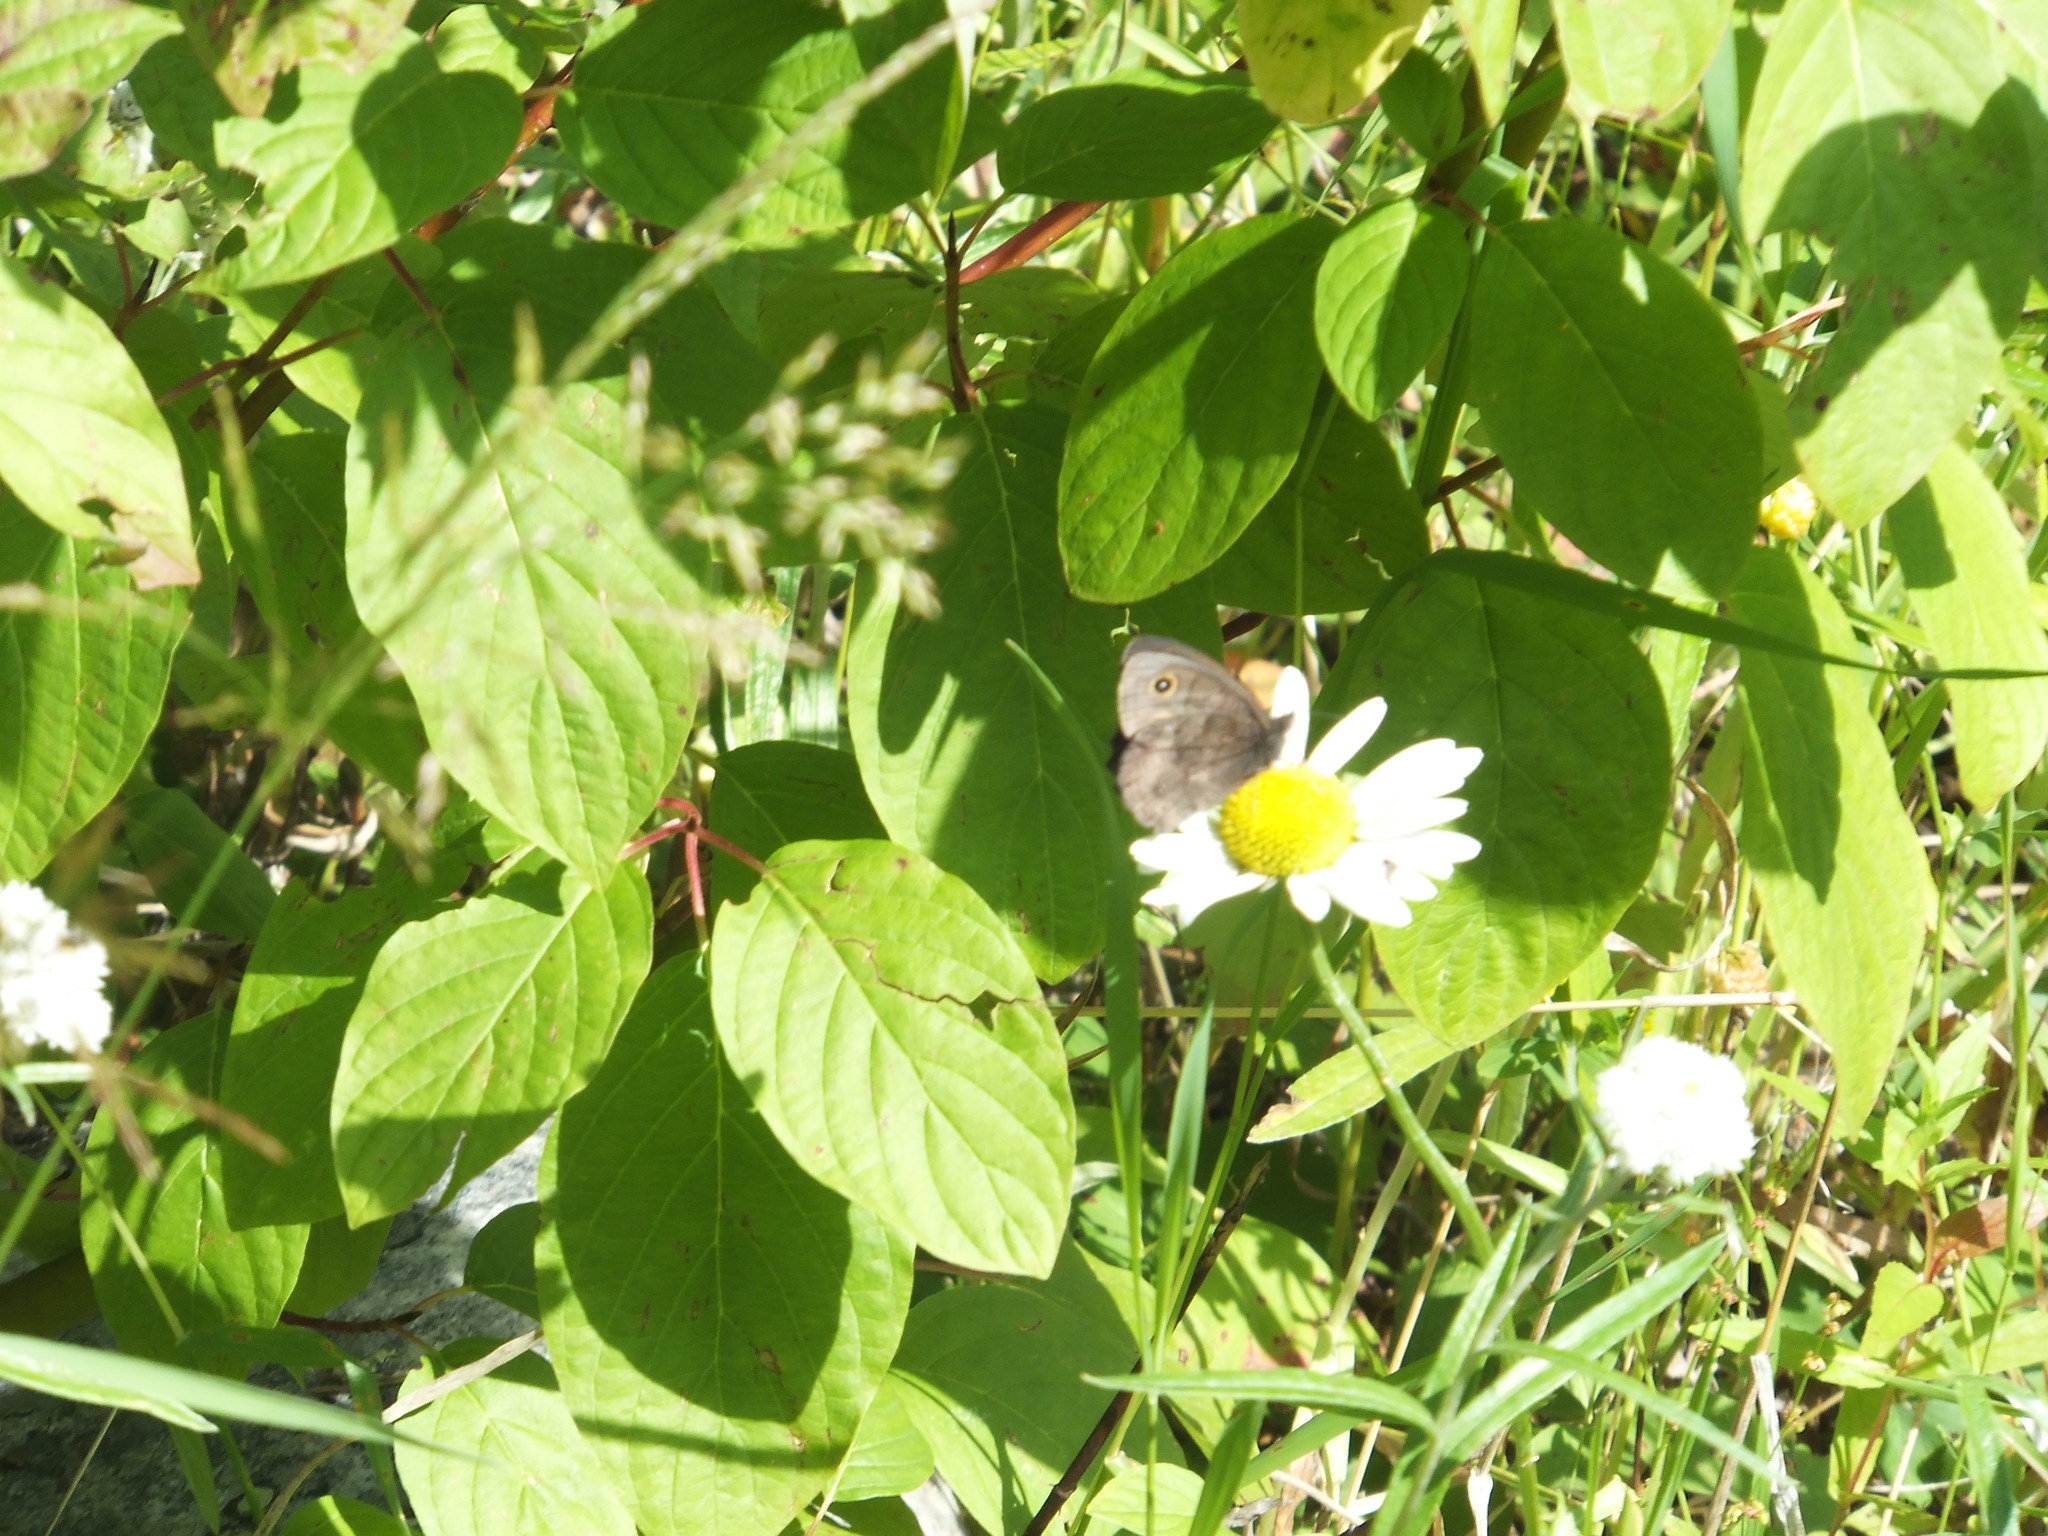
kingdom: Animalia
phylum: Arthropoda
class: Insecta
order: Lepidoptera
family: Nymphalidae
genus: Cercyonis
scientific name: Cercyonis pegala
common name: Common wood-nymph
